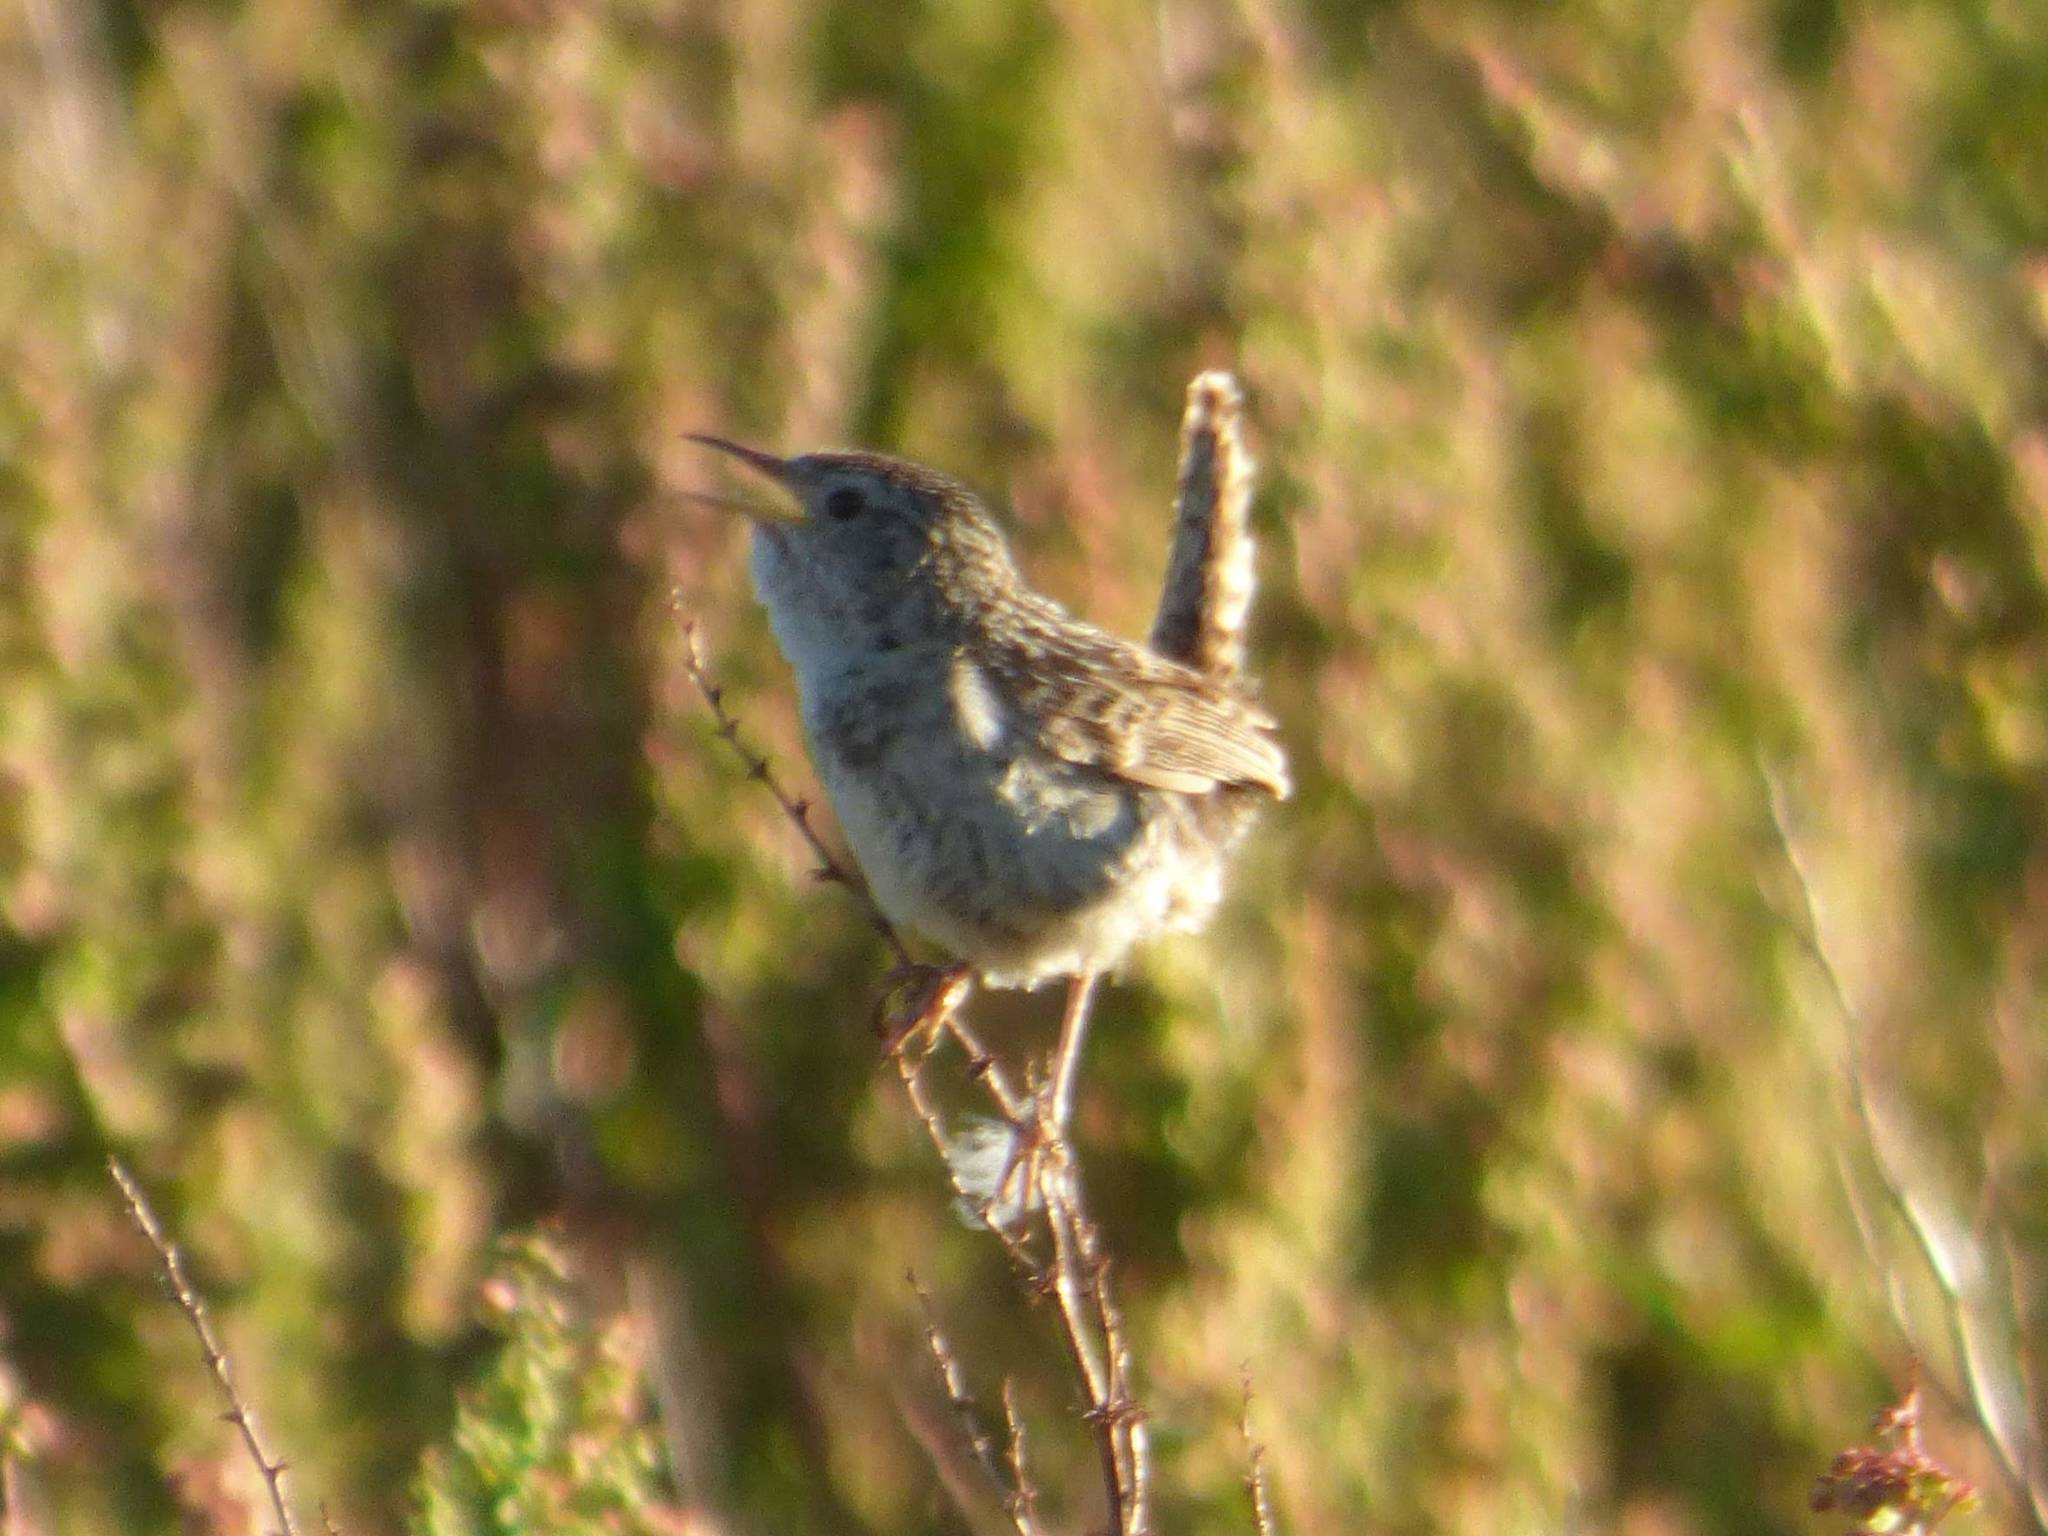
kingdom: Animalia
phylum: Chordata
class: Aves
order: Passeriformes
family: Troglodytidae
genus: Cistothorus
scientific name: Cistothorus platensis
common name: Sedge wren
